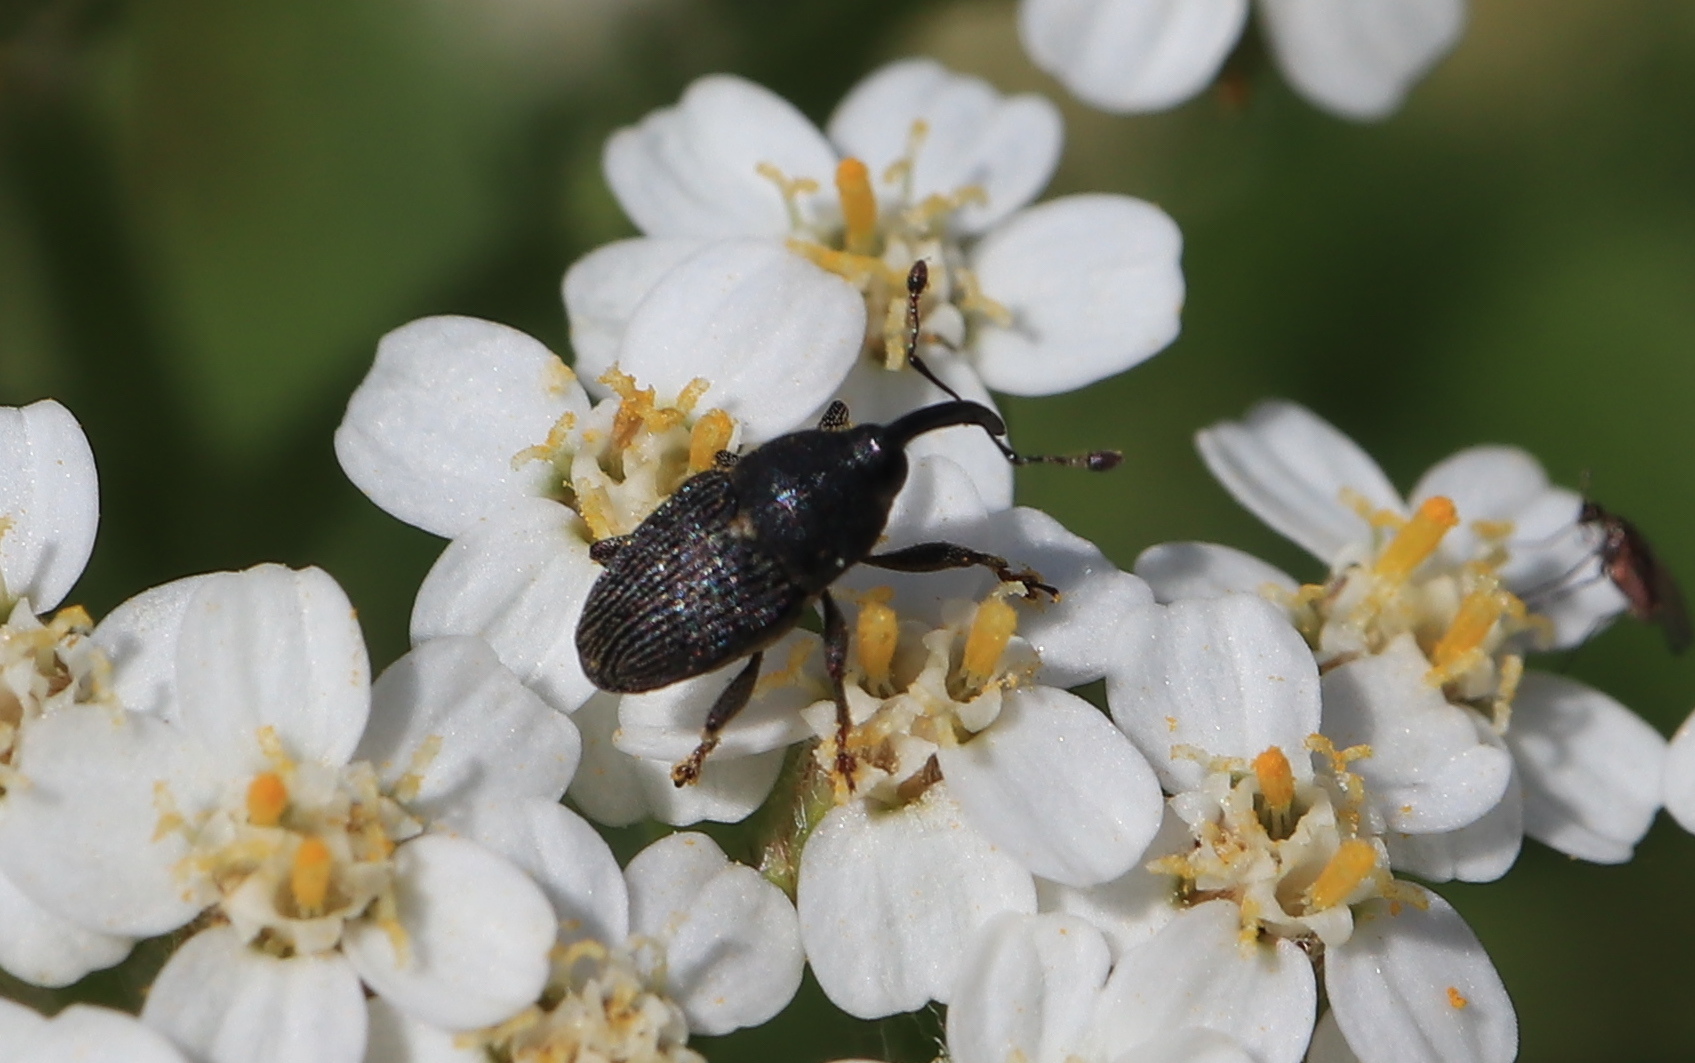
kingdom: Animalia
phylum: Arthropoda
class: Insecta
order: Coleoptera
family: Curculionidae
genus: Odontocorynus
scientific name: Odontocorynus salebrosus
